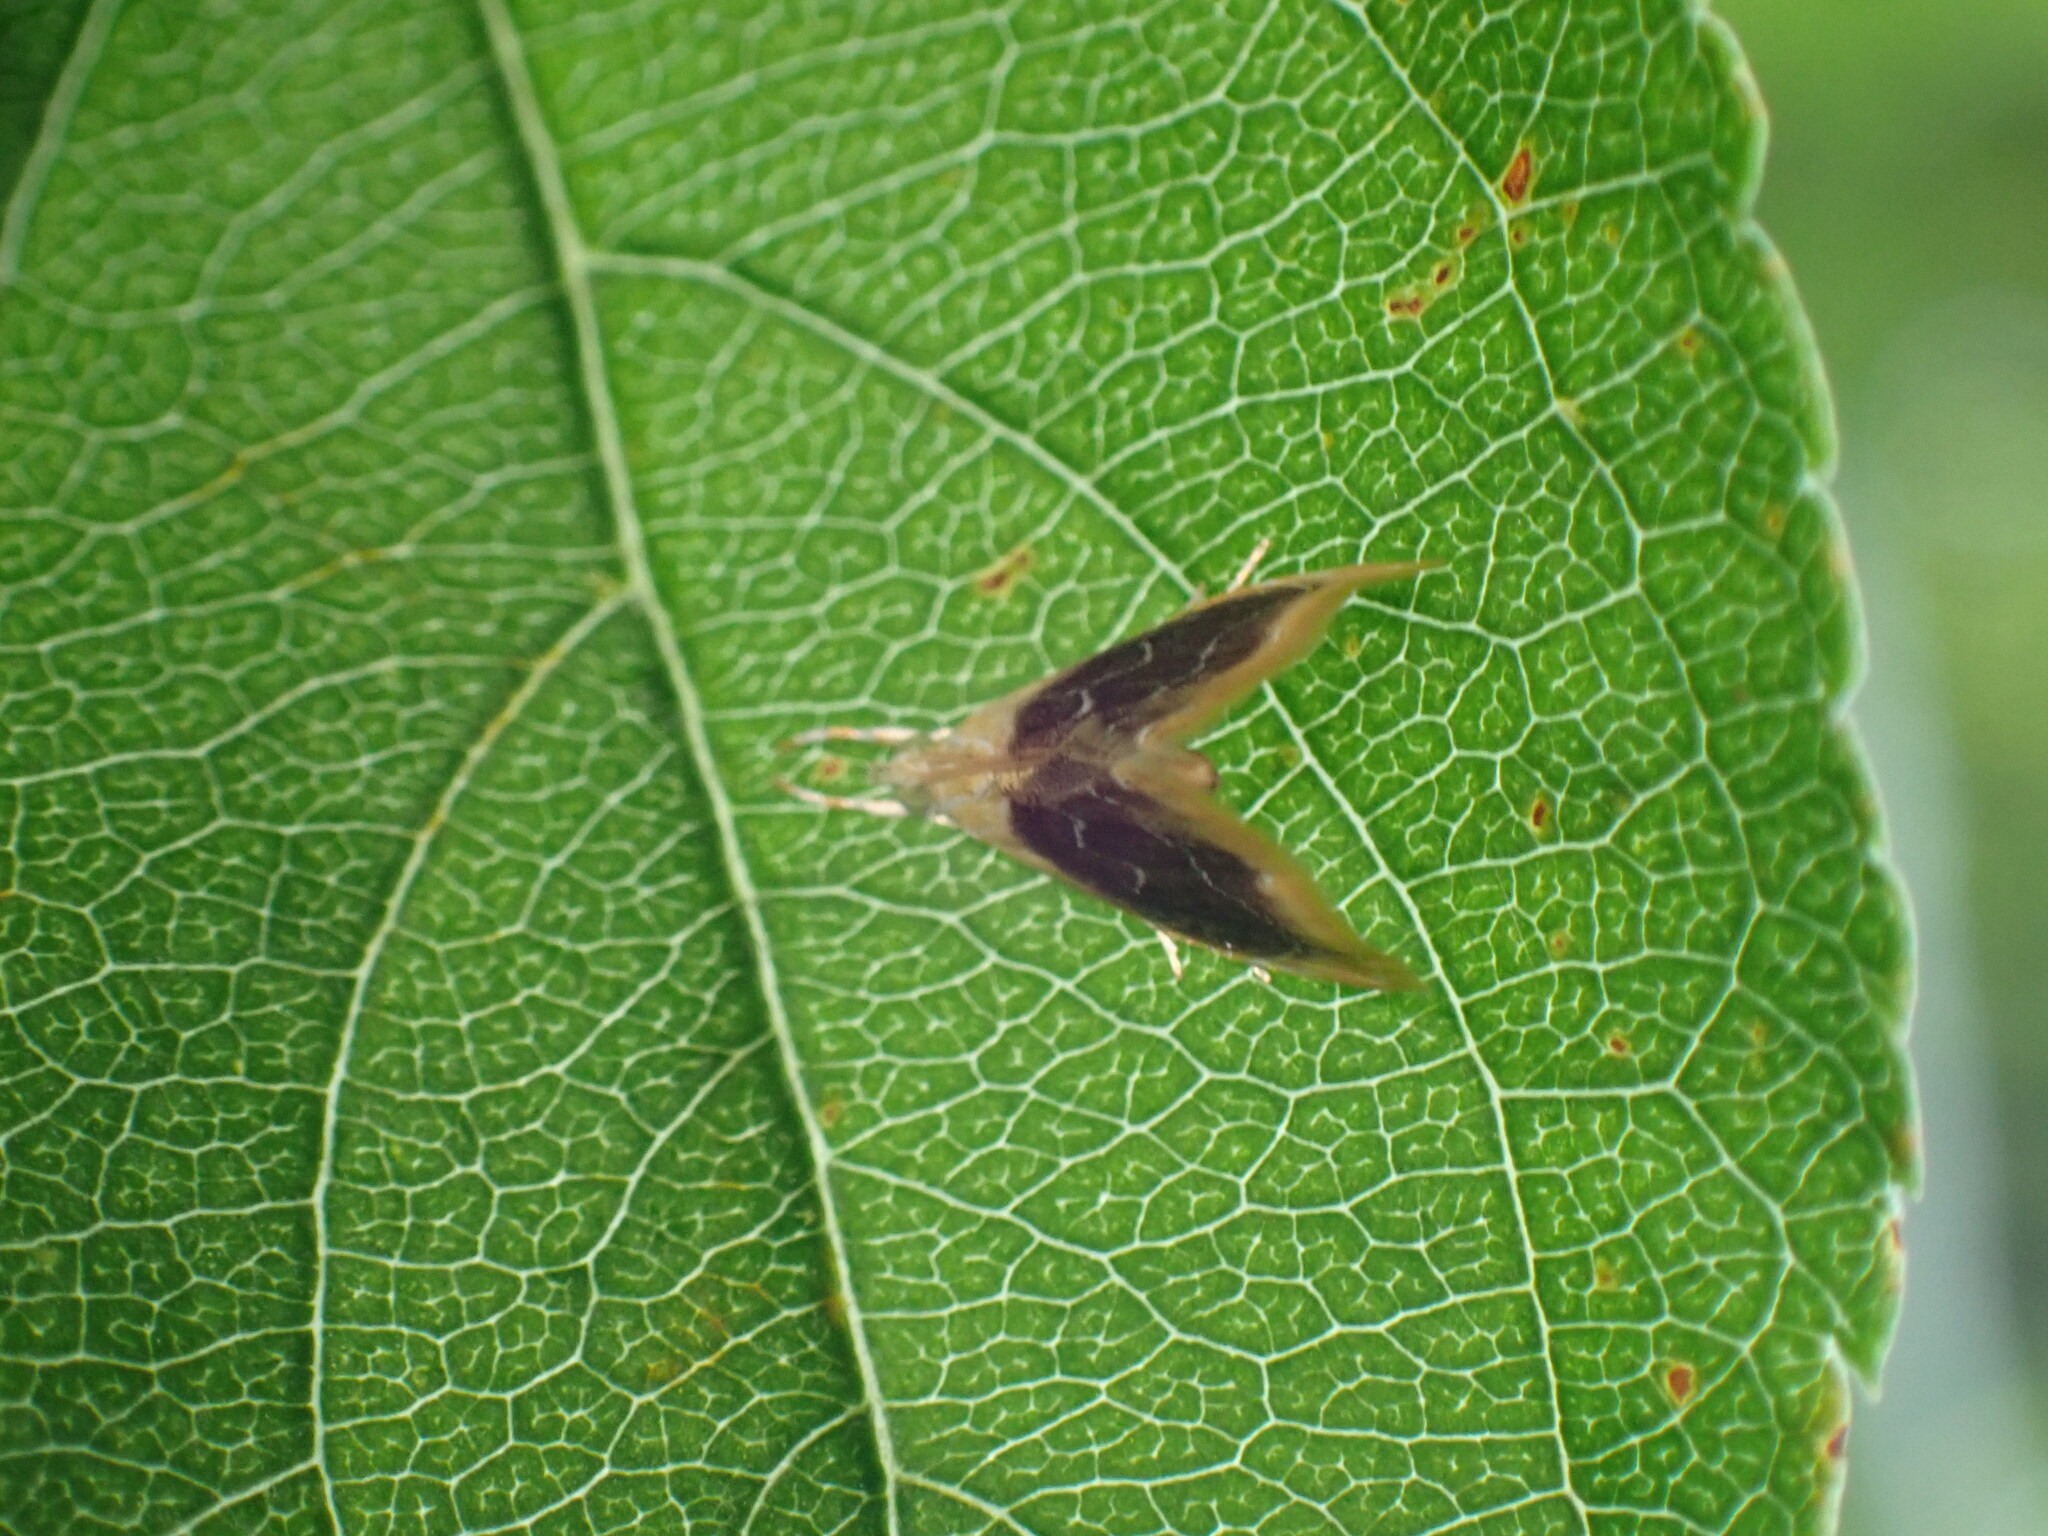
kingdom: Animalia
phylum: Arthropoda
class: Insecta
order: Lepidoptera
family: Crambidae
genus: Glaphyria
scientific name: Glaphyria fulminalis
